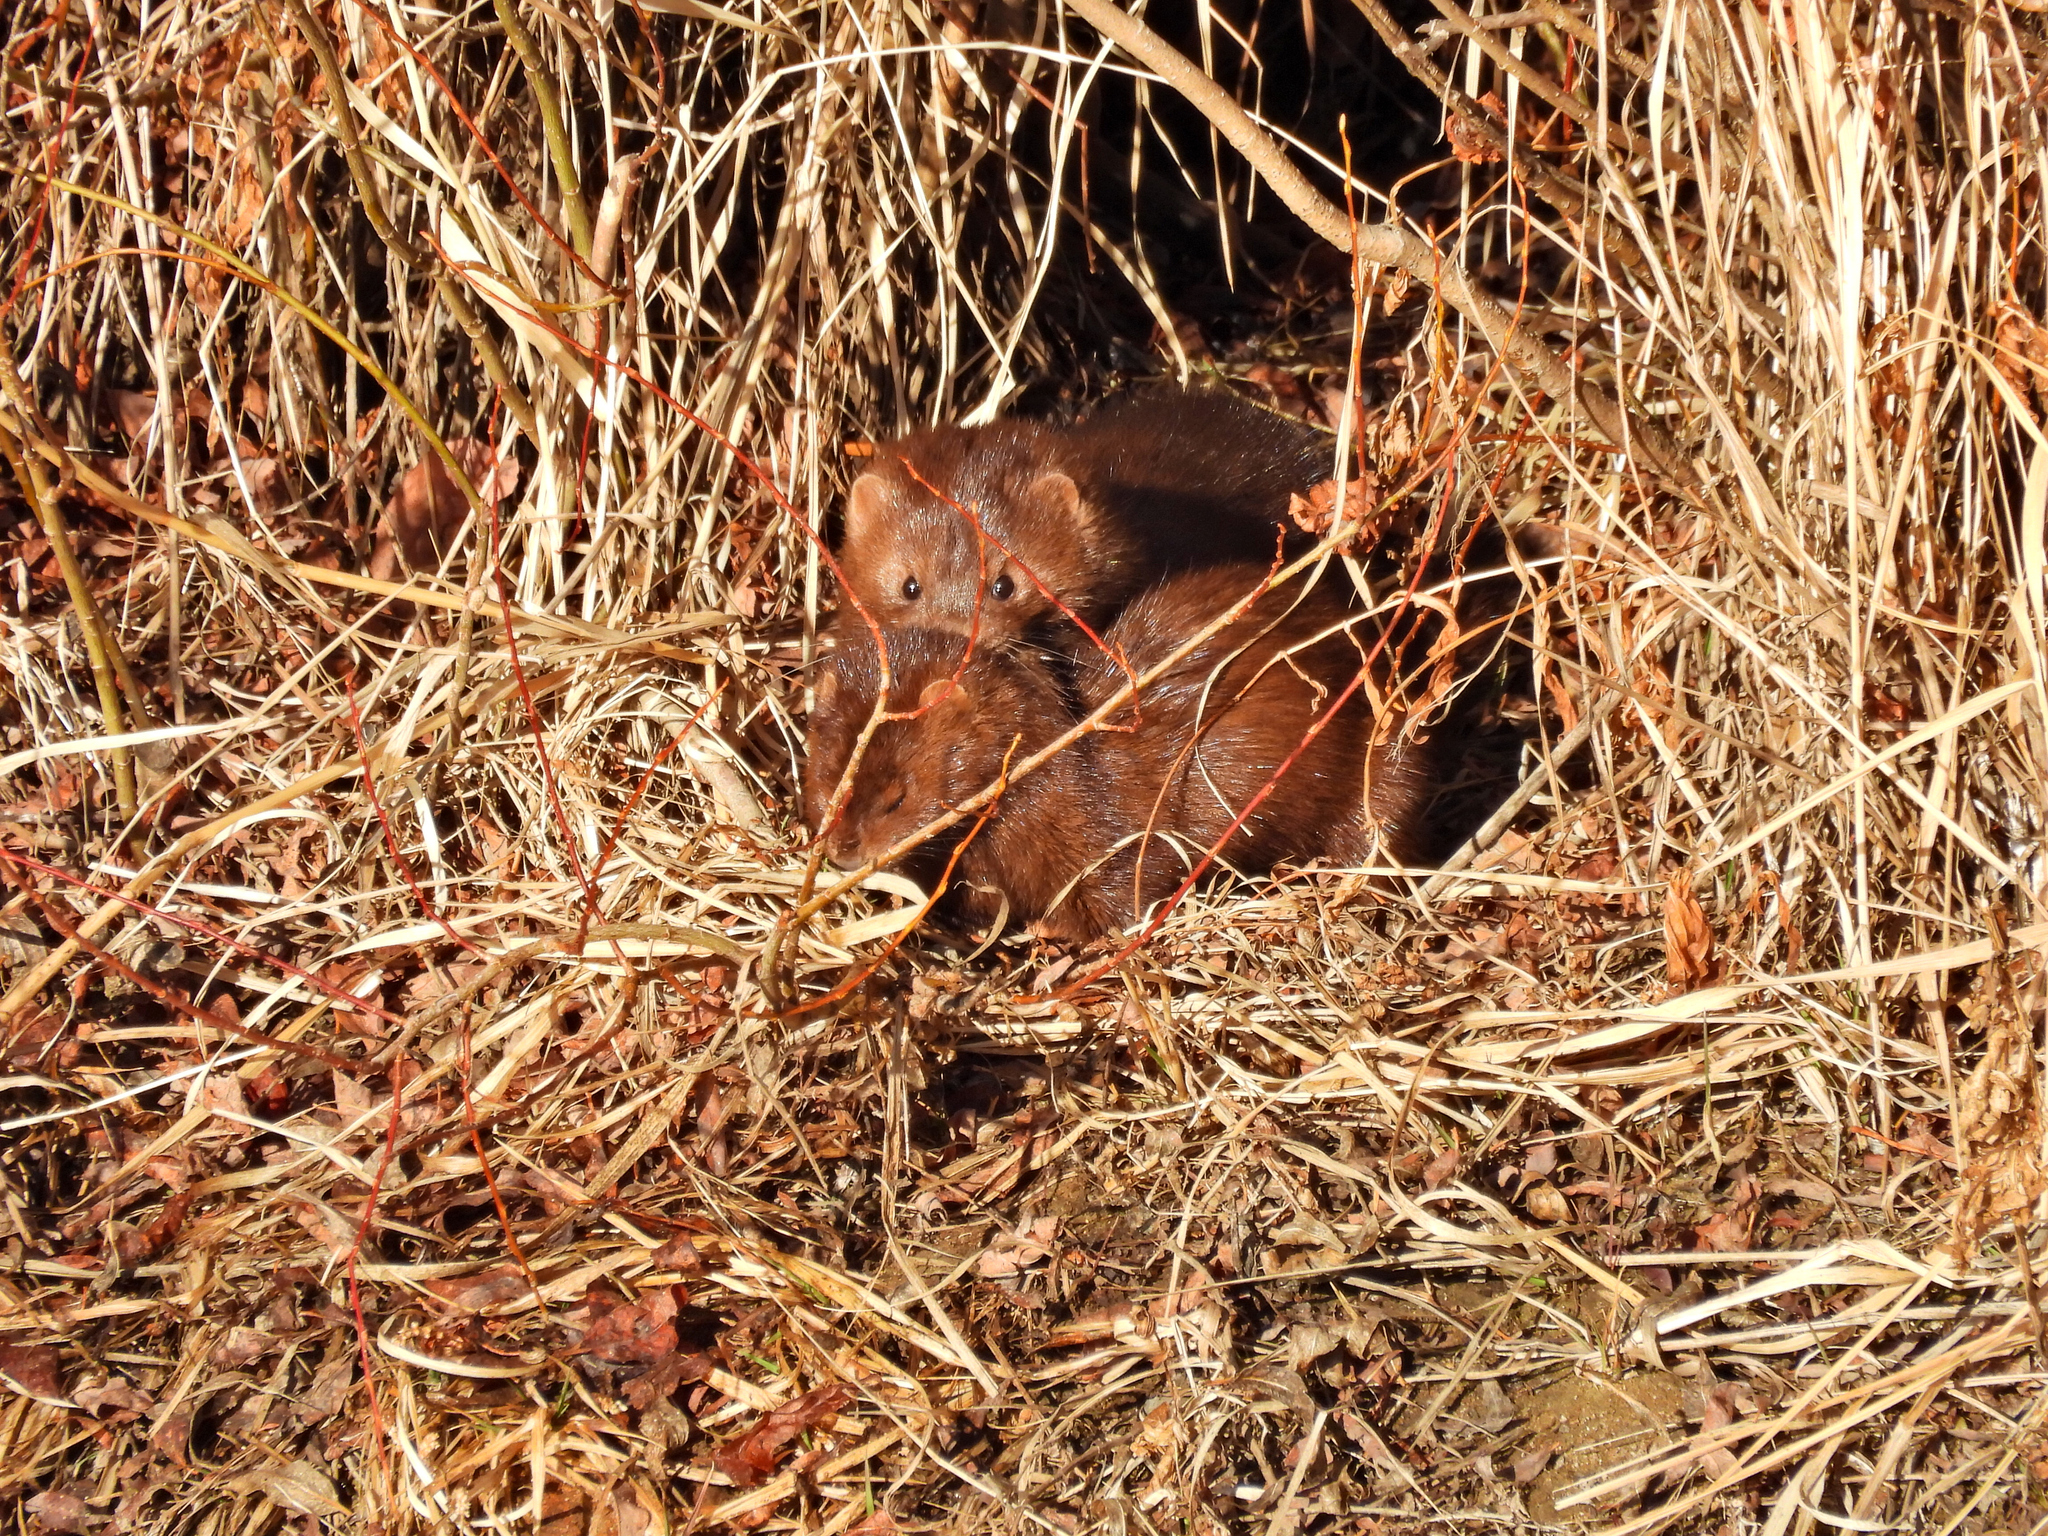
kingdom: Animalia
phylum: Chordata
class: Mammalia
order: Carnivora
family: Mustelidae
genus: Mustela
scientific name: Mustela
